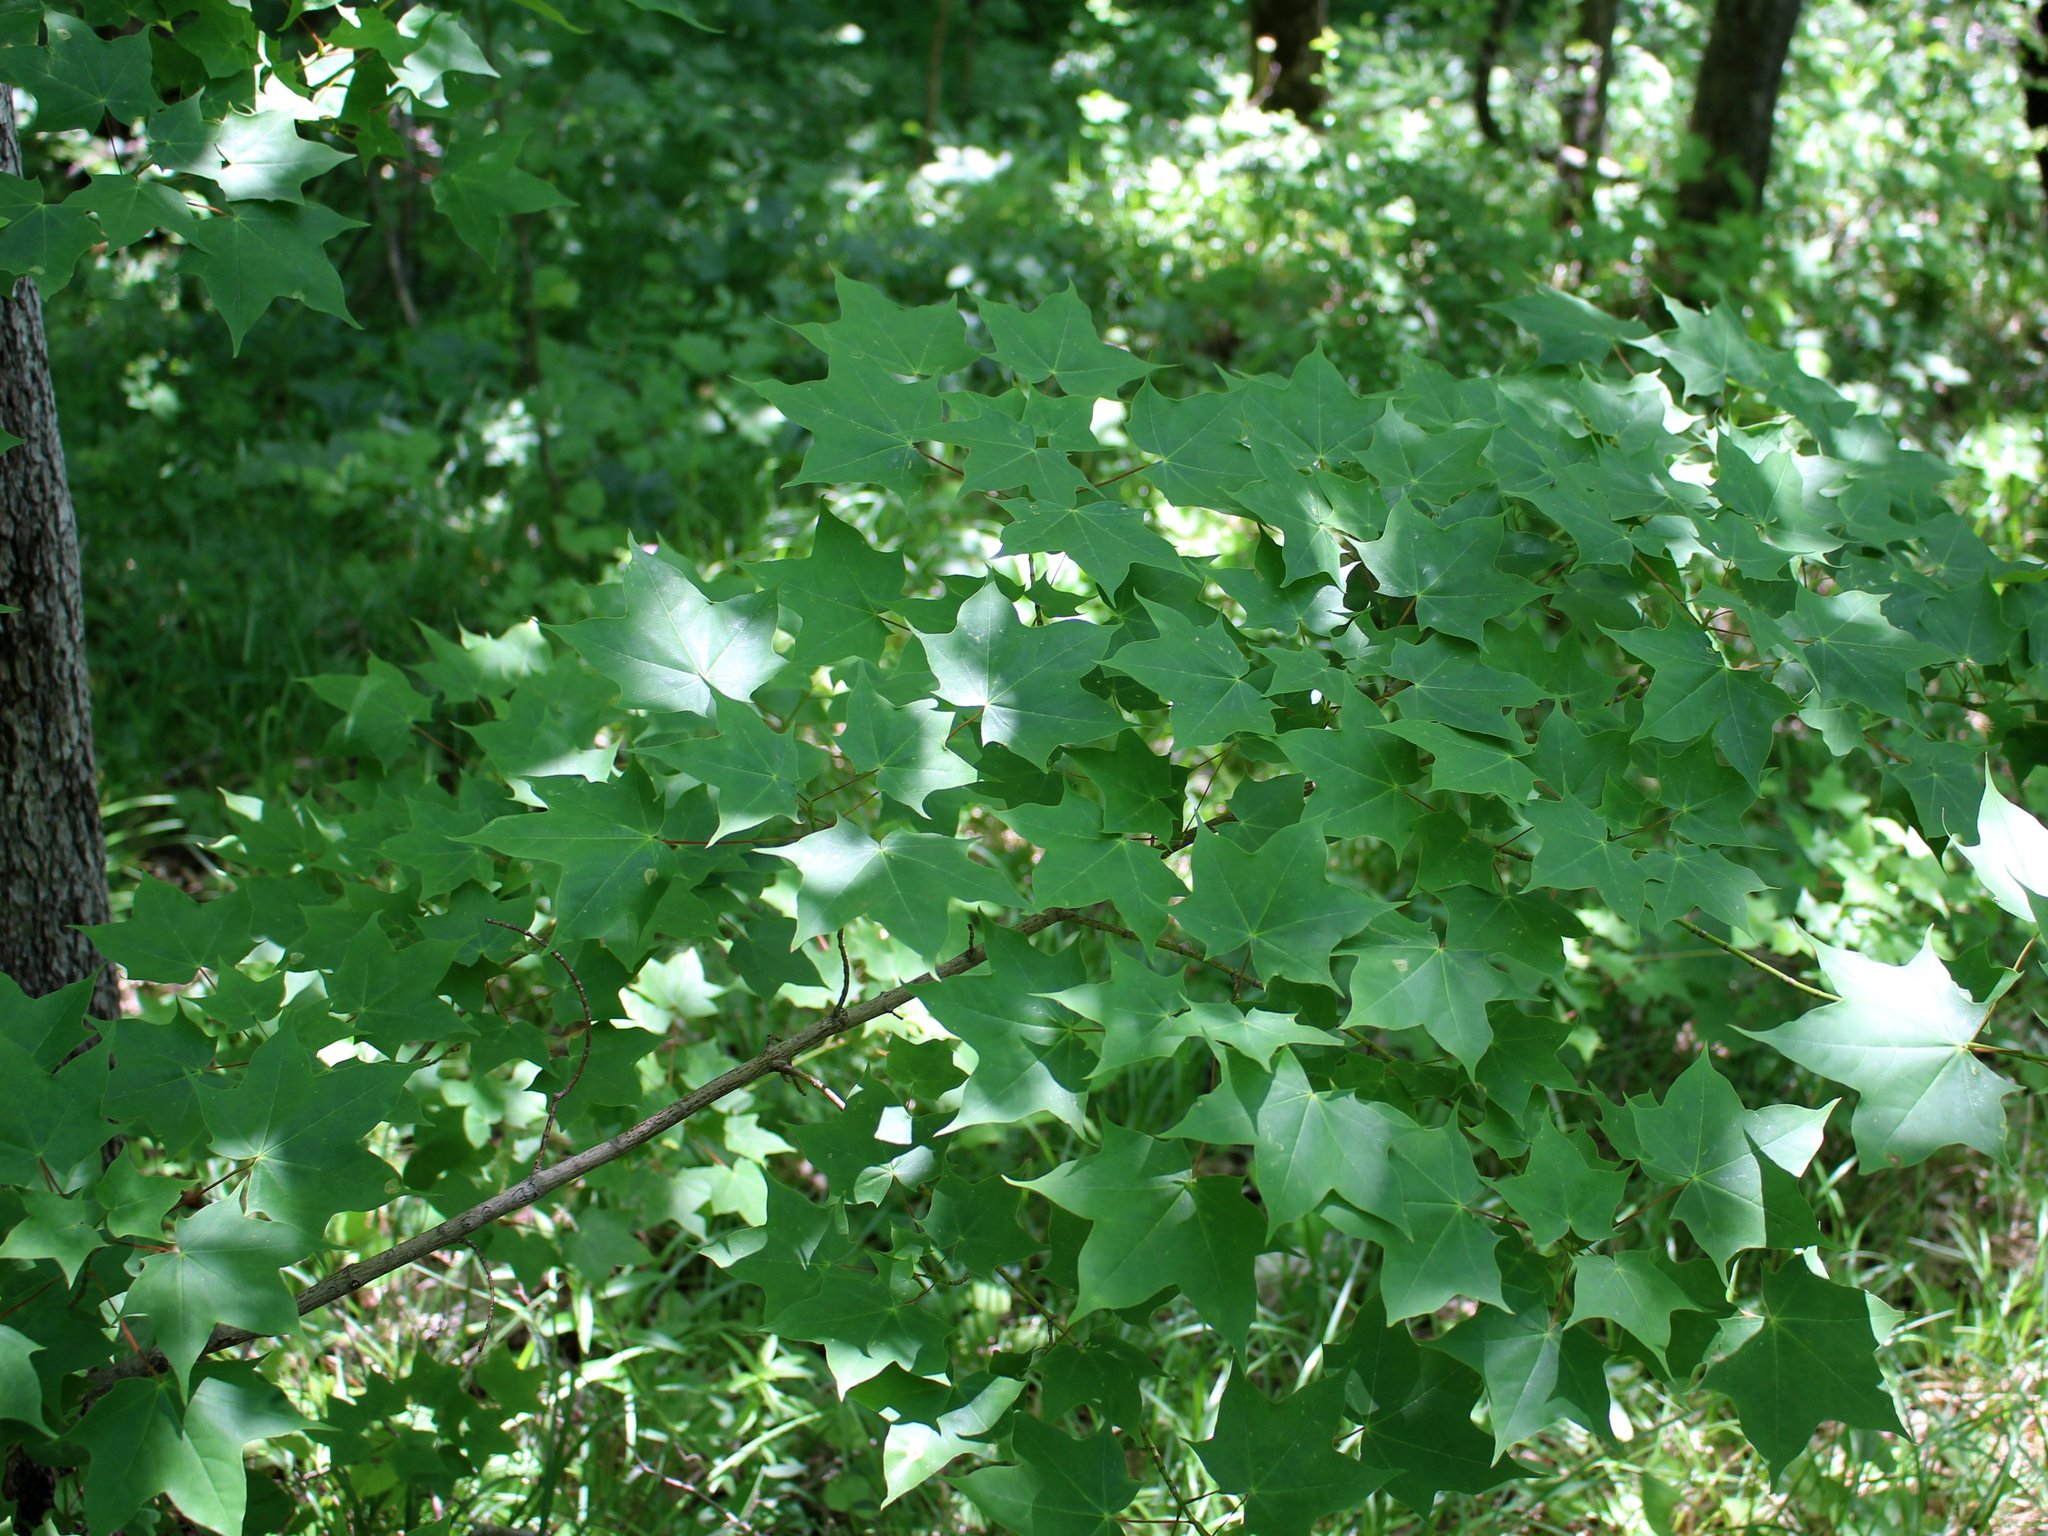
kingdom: Plantae
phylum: Tracheophyta
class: Magnoliopsida
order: Sapindales
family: Sapindaceae
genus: Acer
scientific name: Acer cappadocicum
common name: Cappadocian maple
